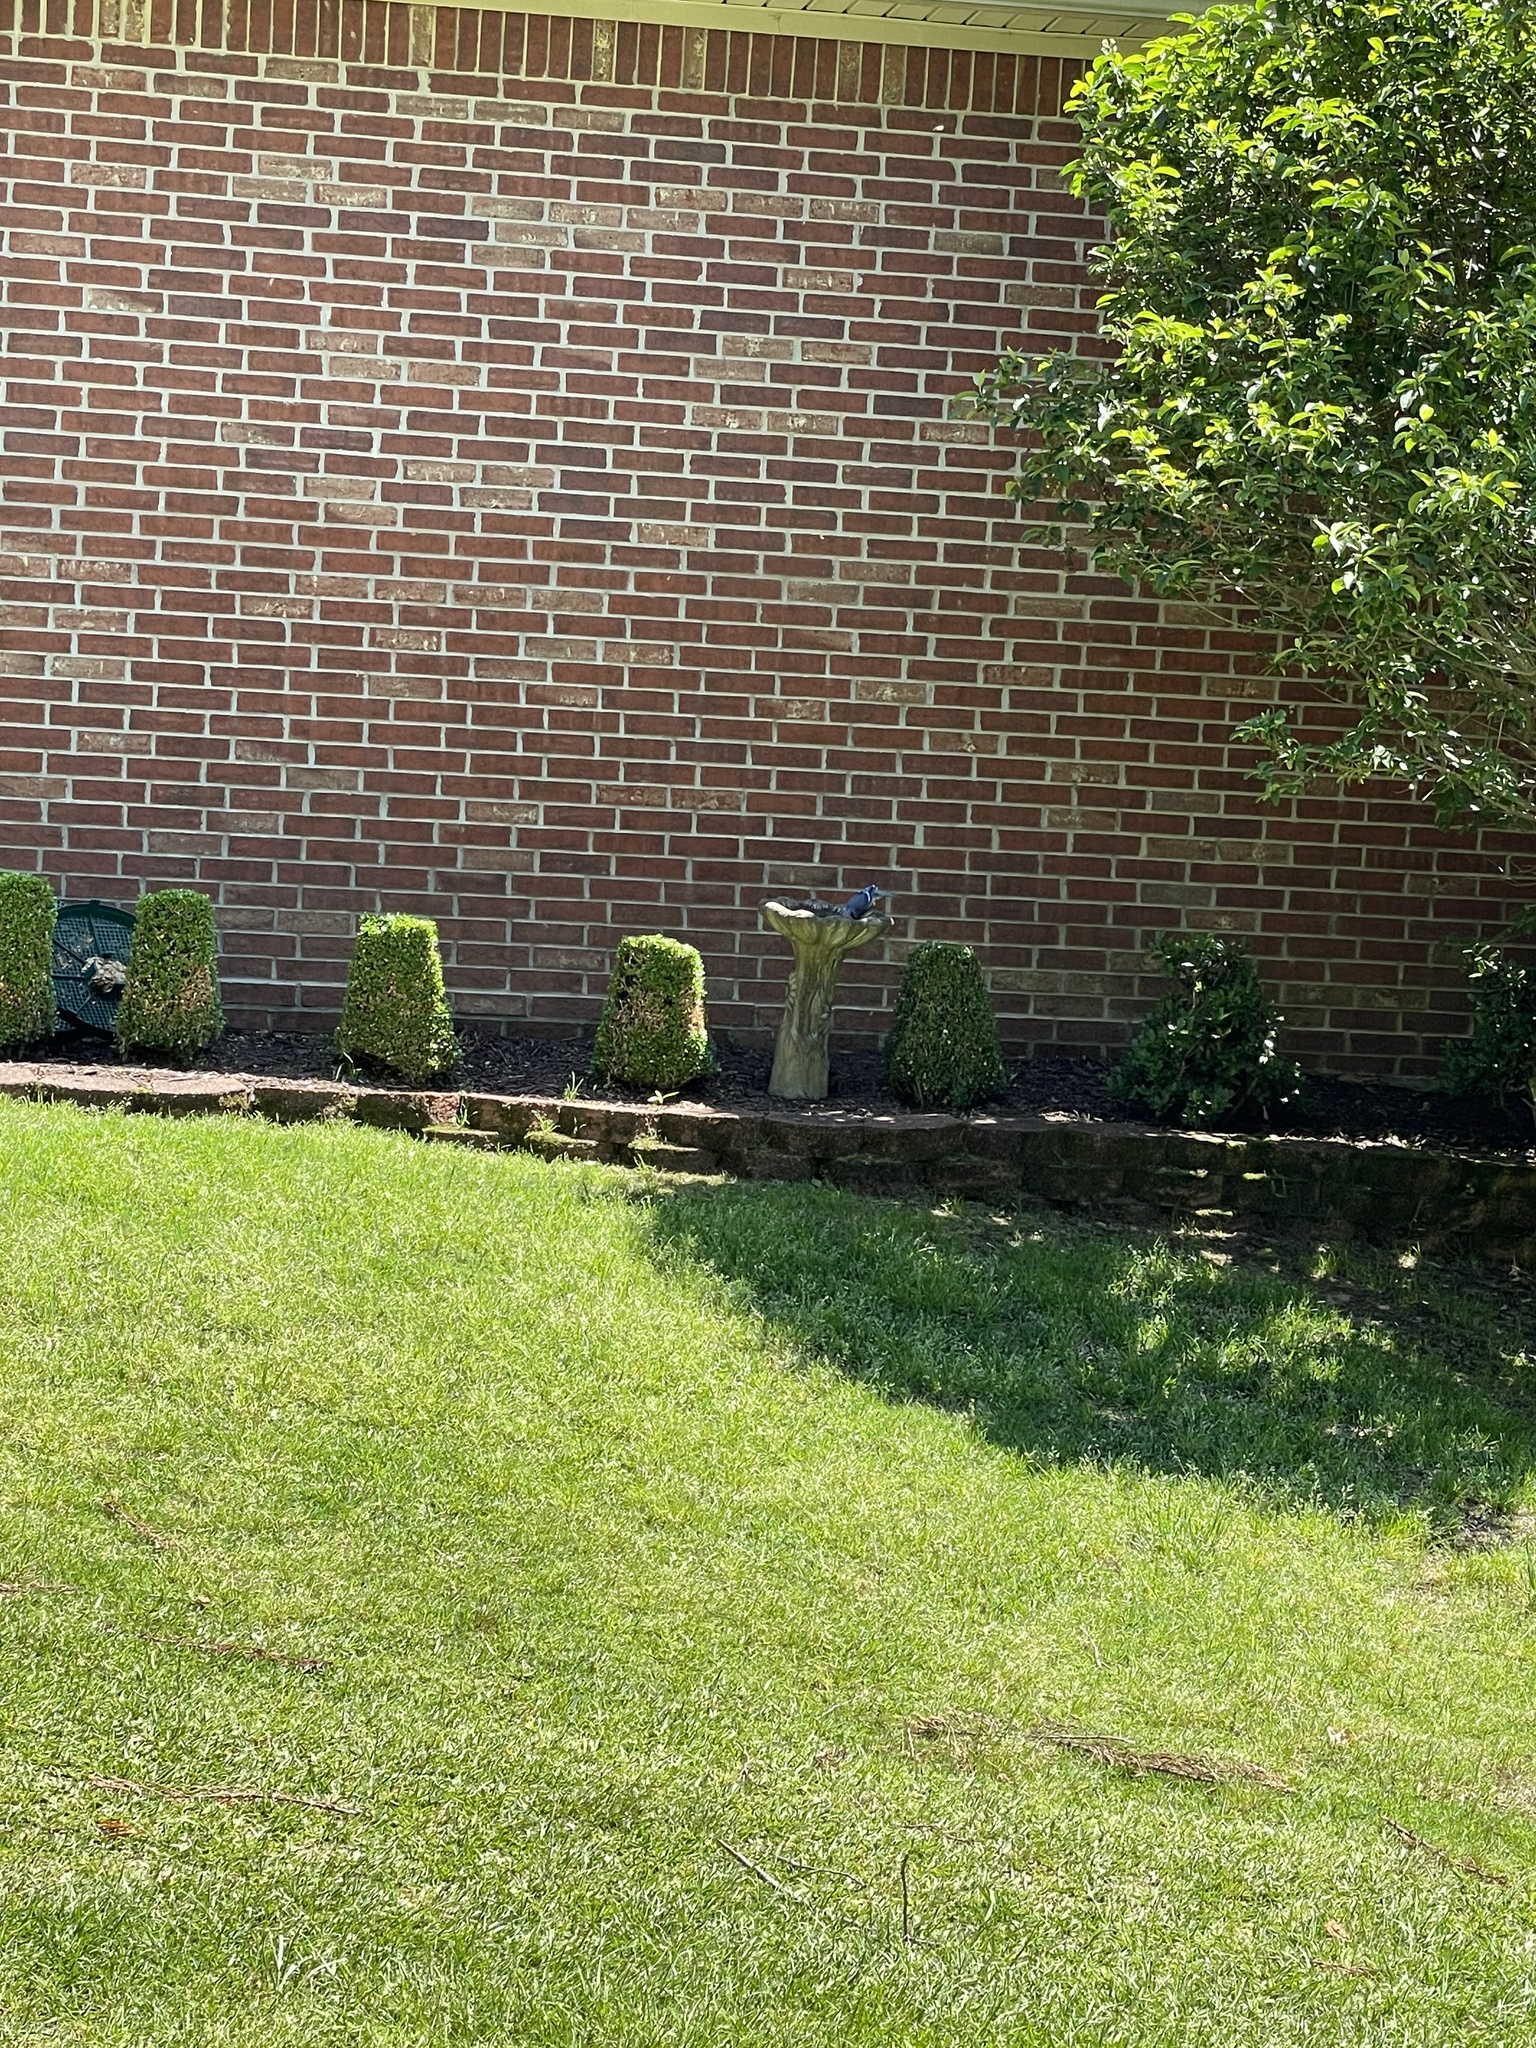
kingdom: Animalia
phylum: Chordata
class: Aves
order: Passeriformes
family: Corvidae
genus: Cyanocitta
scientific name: Cyanocitta cristata
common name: Blue jay
